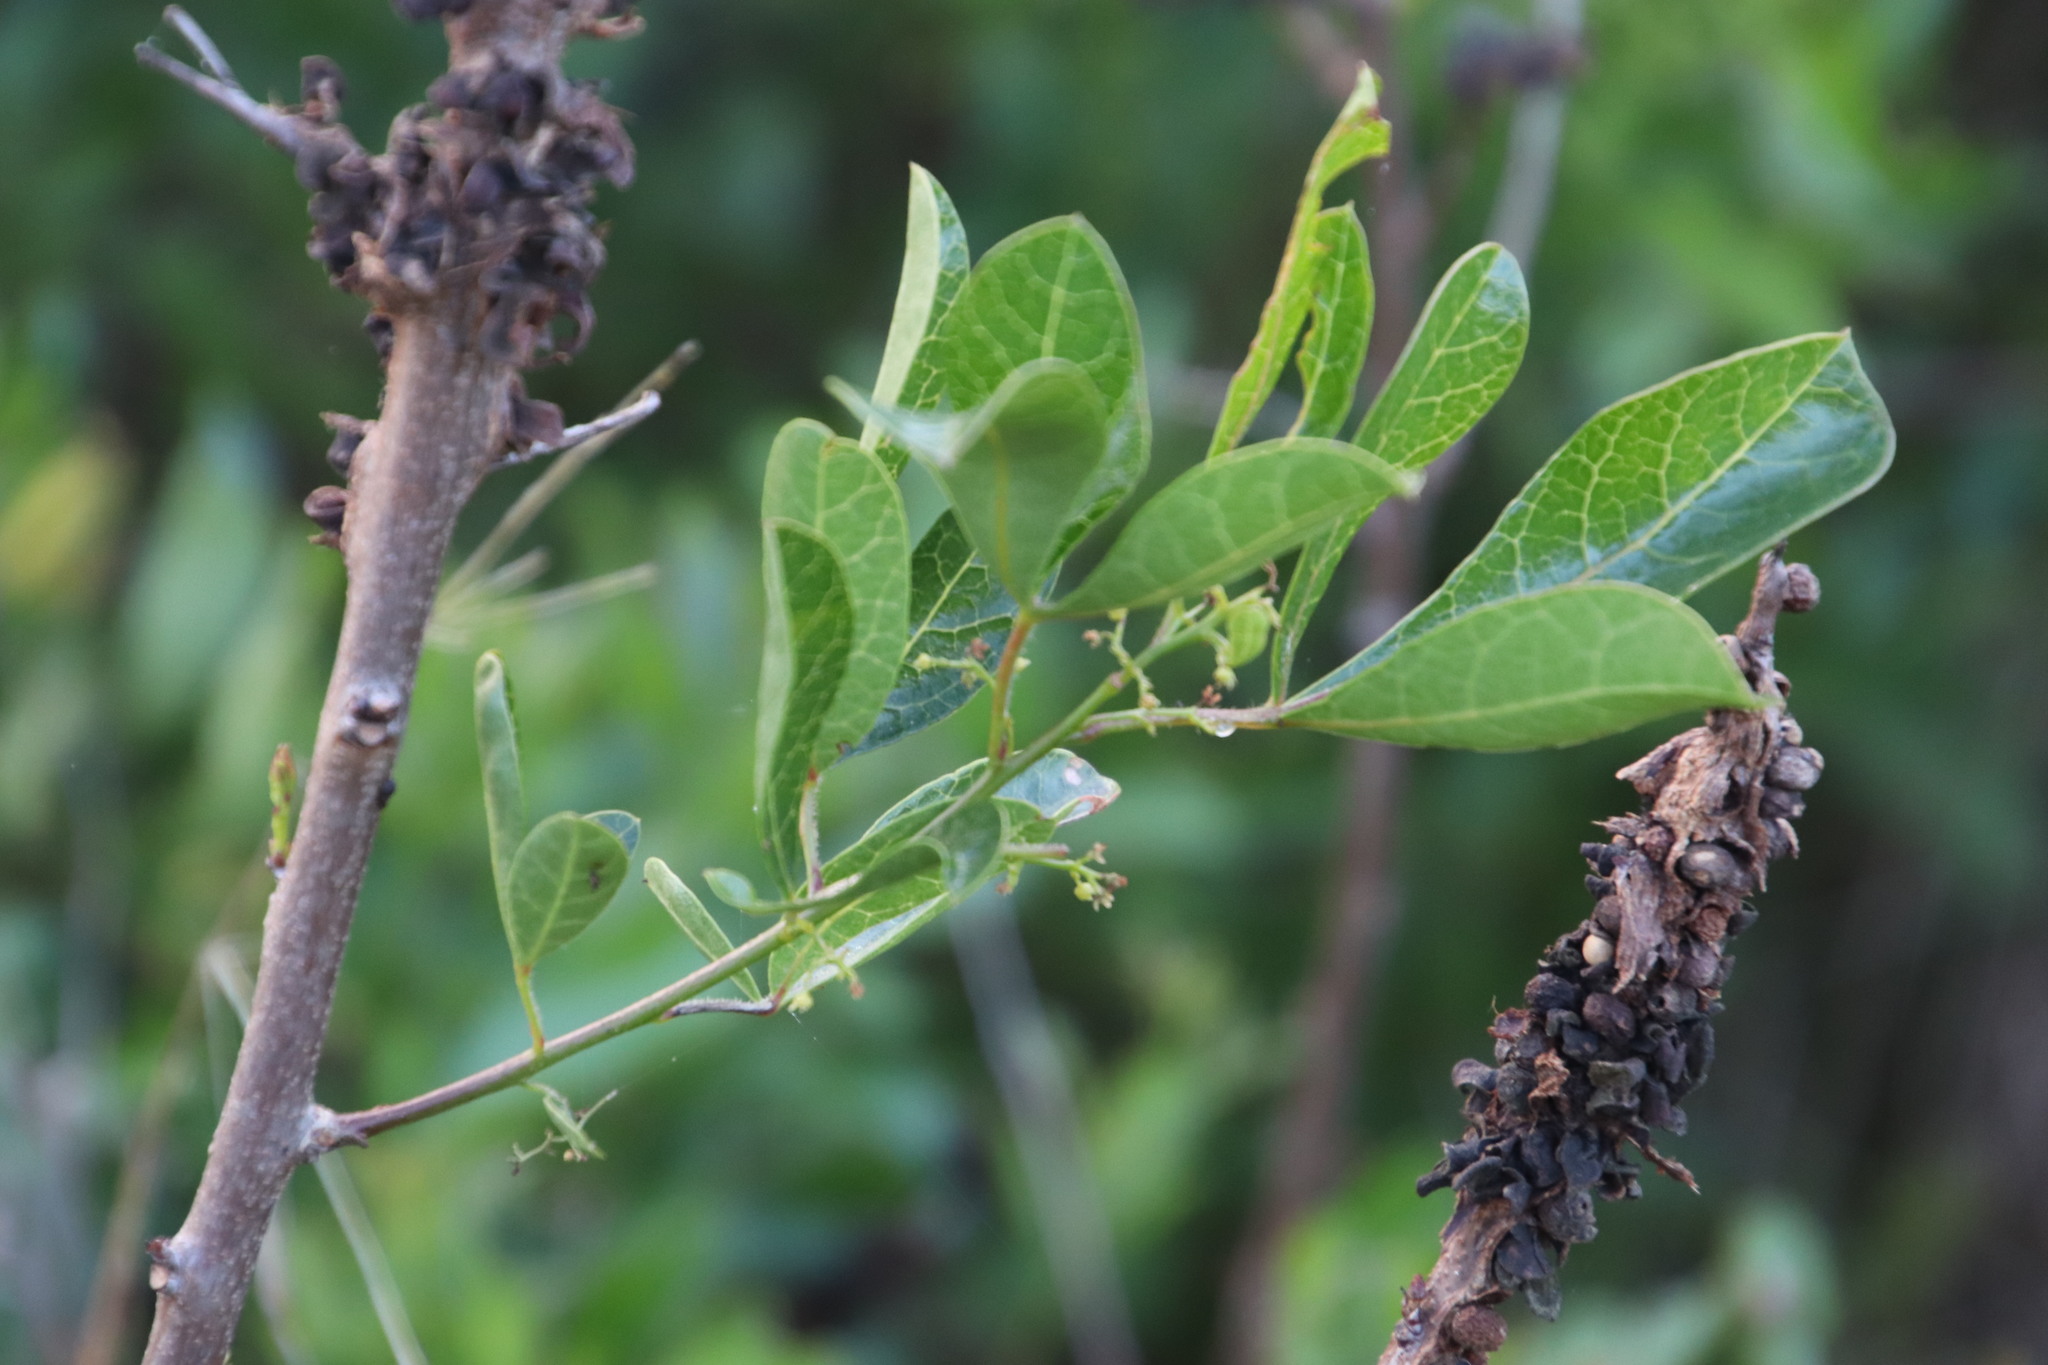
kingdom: Plantae
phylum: Tracheophyta
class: Magnoliopsida
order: Sapindales
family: Anacardiaceae
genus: Searsia
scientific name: Searsia laevigata
